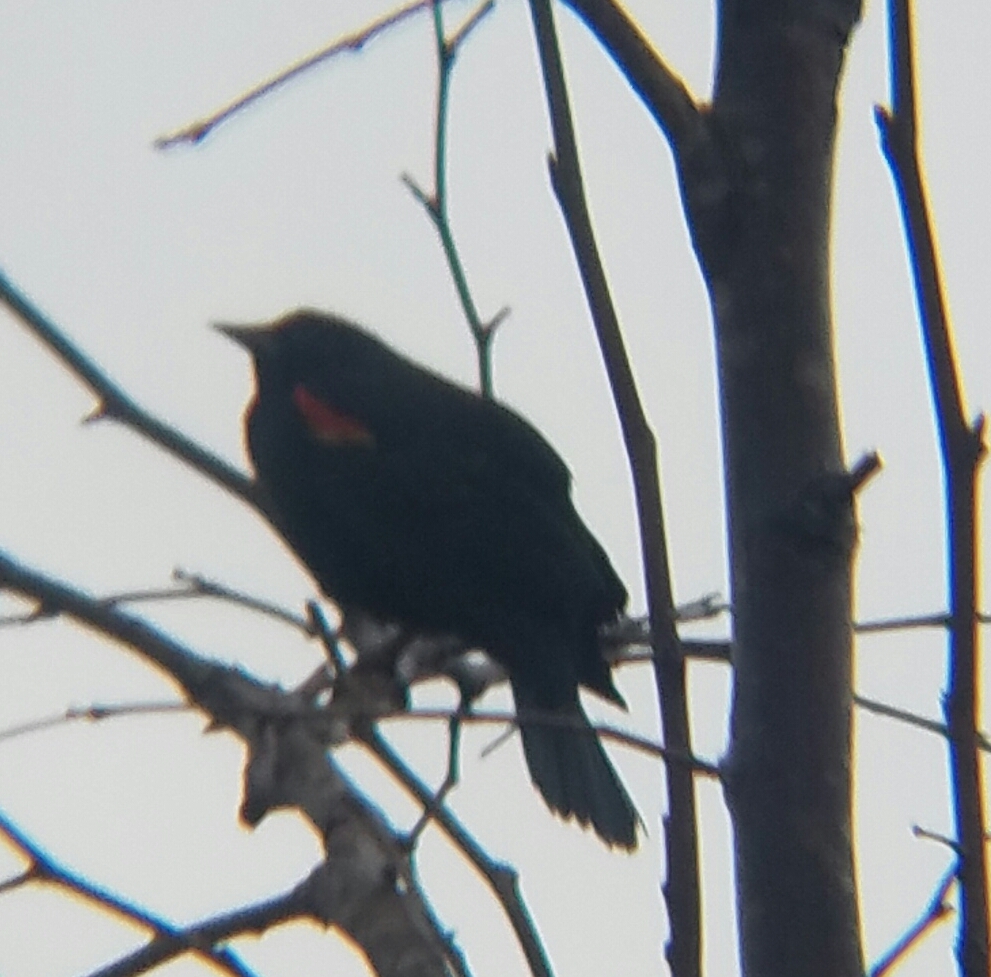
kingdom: Animalia
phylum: Chordata
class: Aves
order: Passeriformes
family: Icteridae
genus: Agelaius
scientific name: Agelaius phoeniceus
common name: Red-winged blackbird
